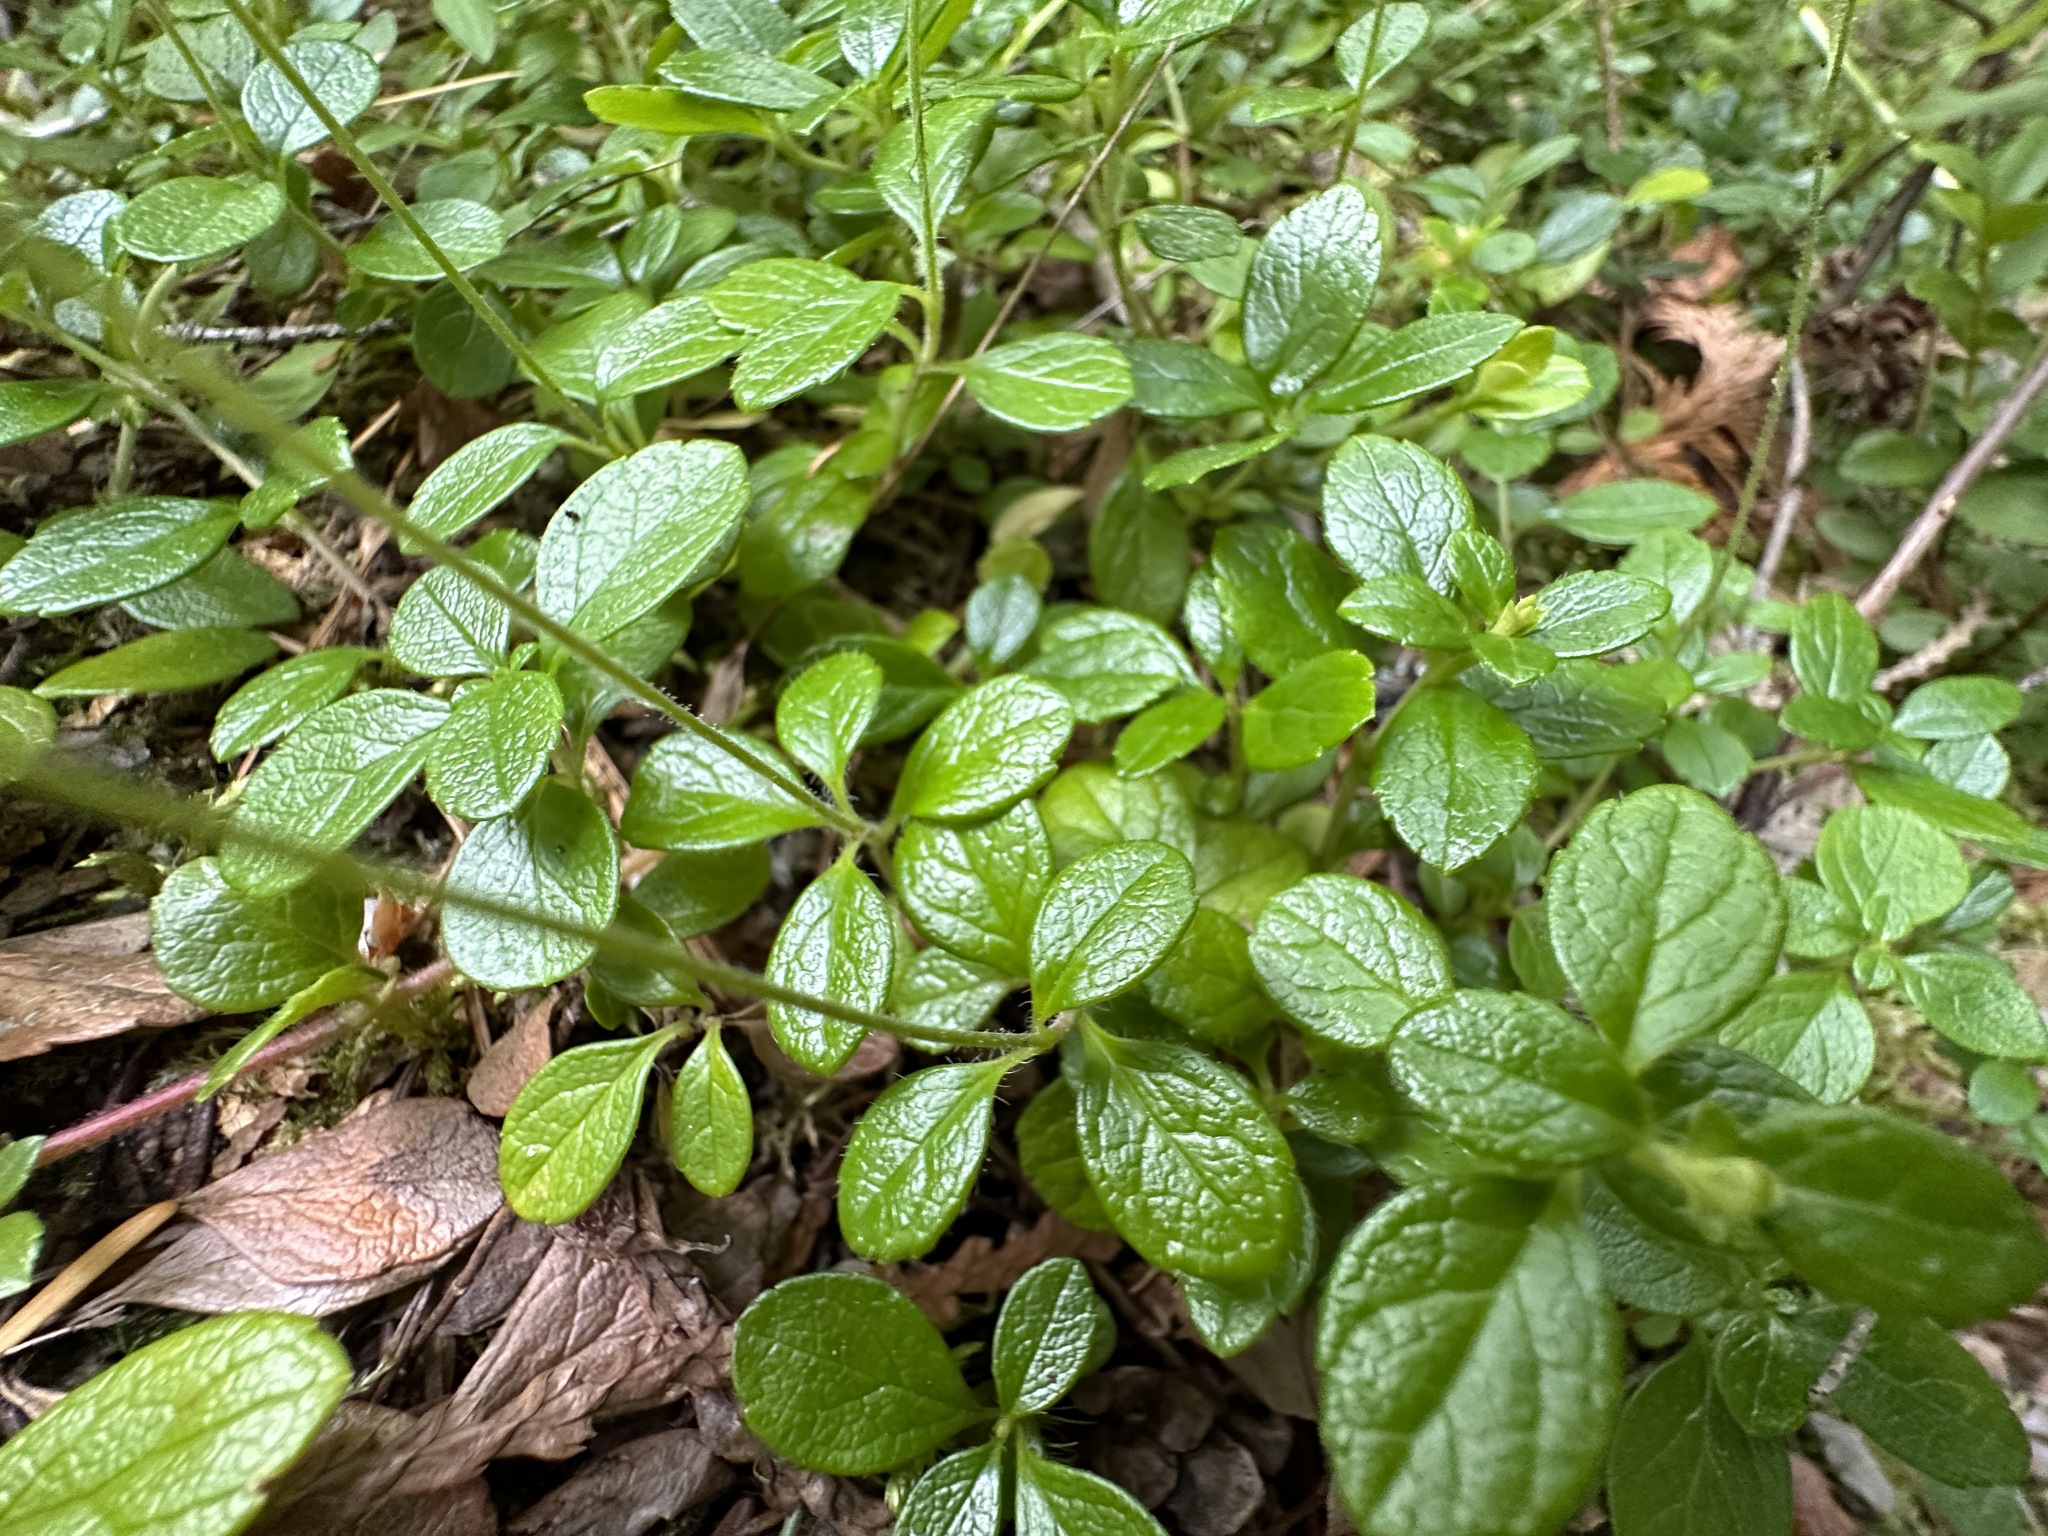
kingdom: Plantae
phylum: Tracheophyta
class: Magnoliopsida
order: Dipsacales
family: Caprifoliaceae
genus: Linnaea
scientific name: Linnaea borealis
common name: Twinflower
